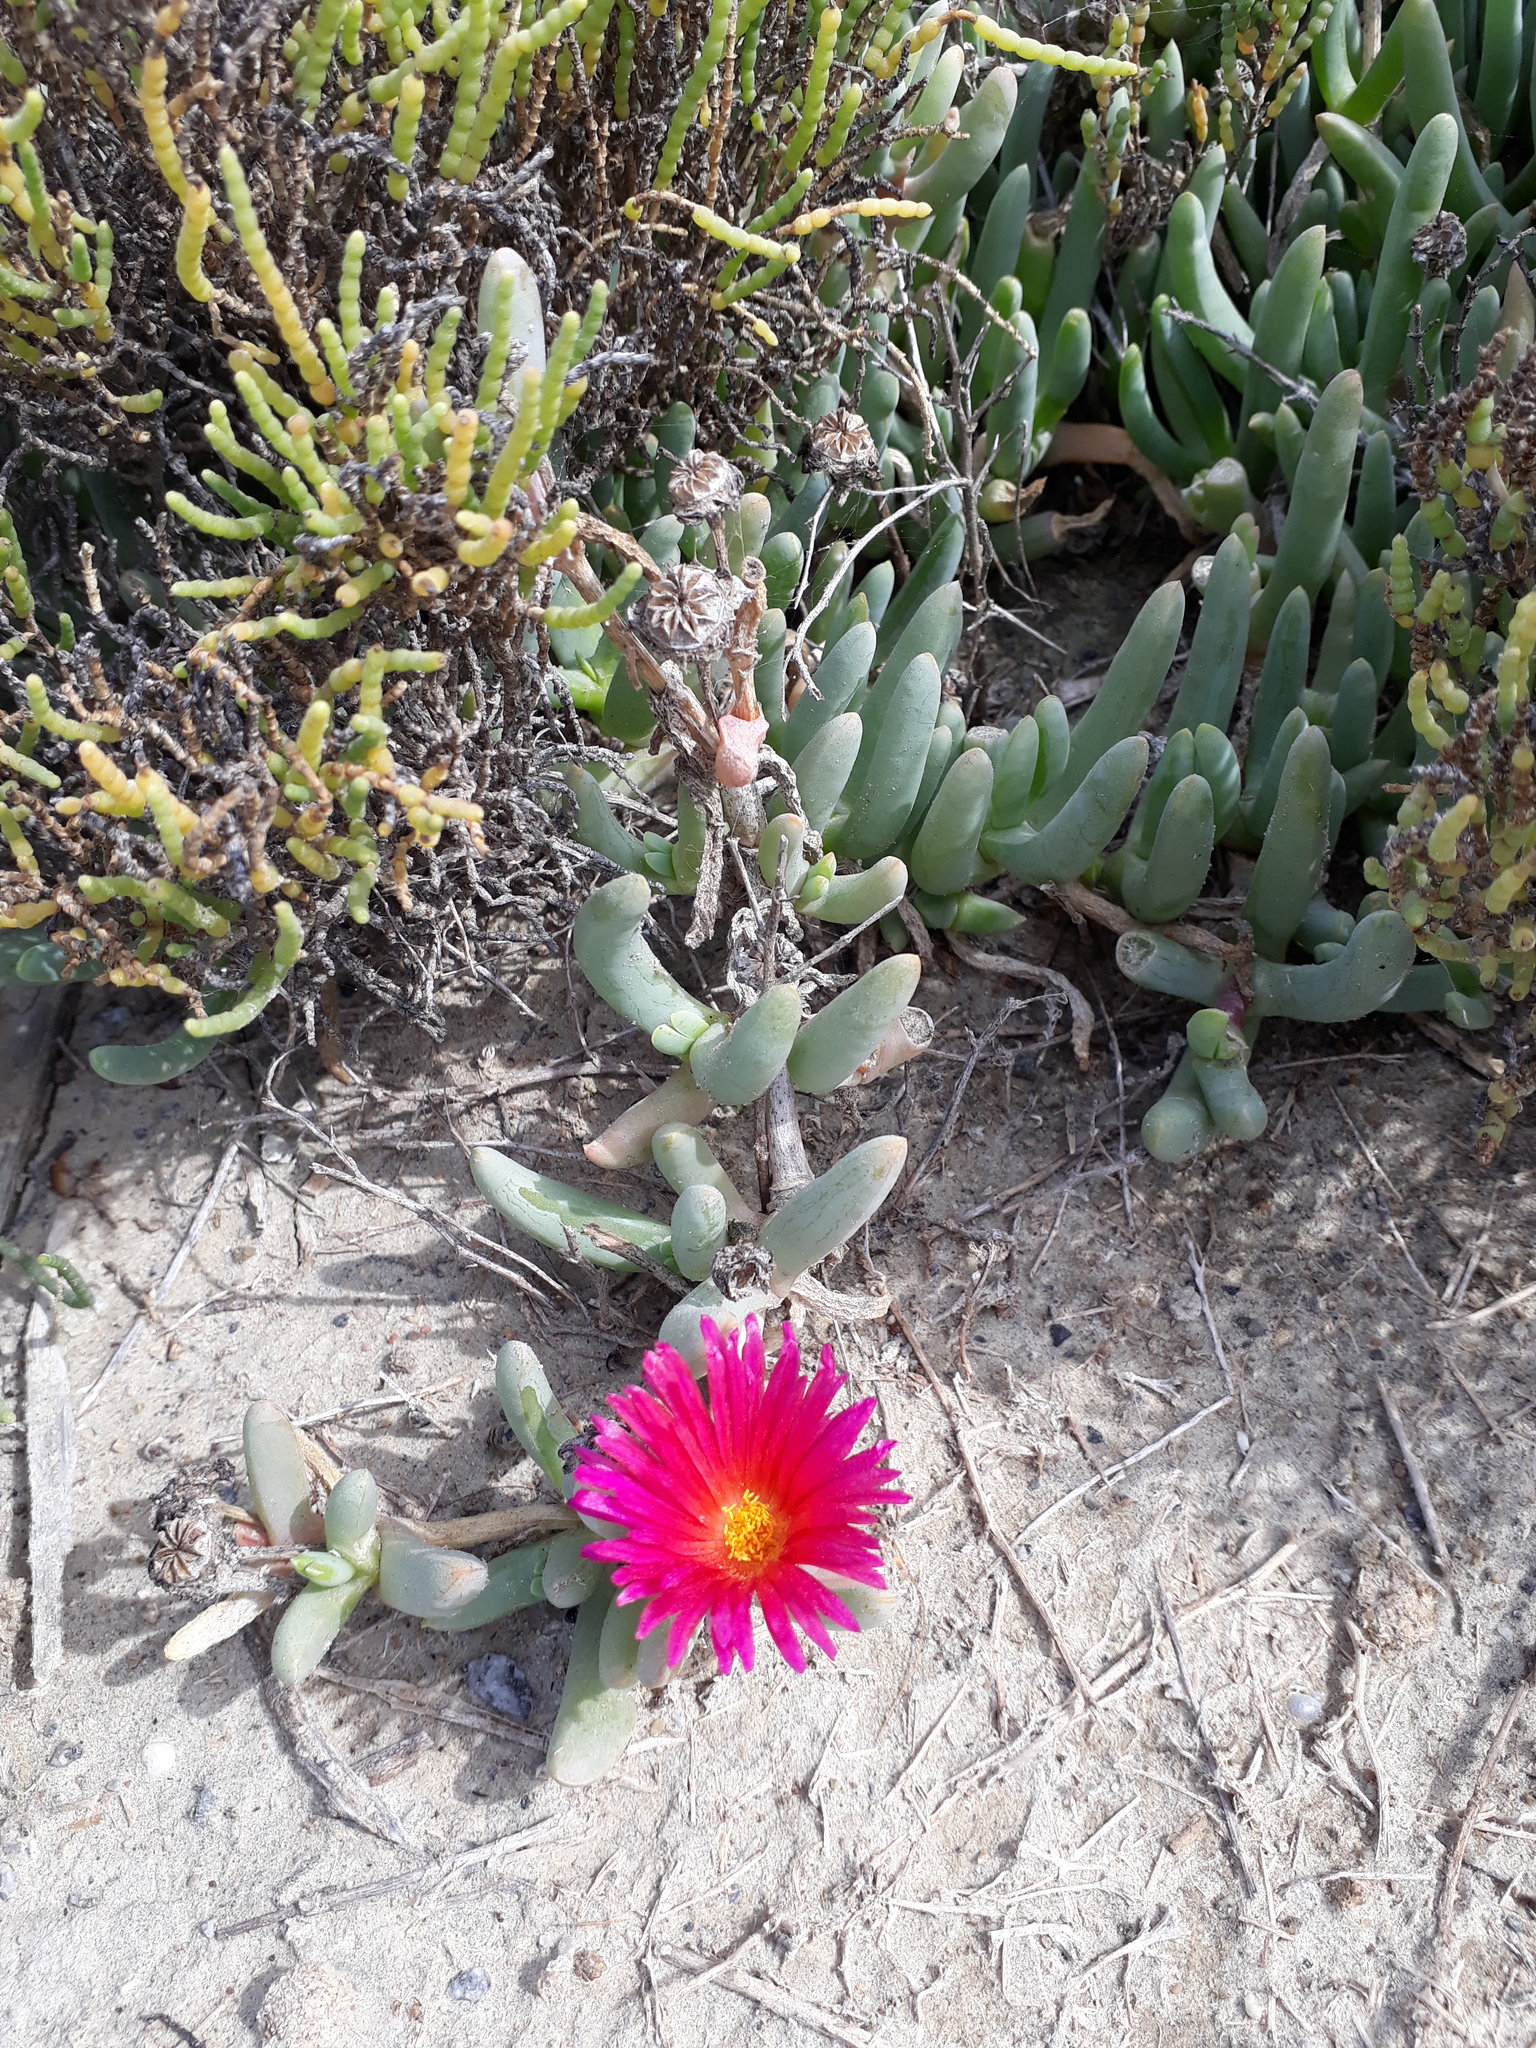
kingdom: Plantae
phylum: Tracheophyta
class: Magnoliopsida
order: Caryophyllales
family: Aizoaceae
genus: Malephora
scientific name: Malephora crocea
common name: Coppery mesemb
